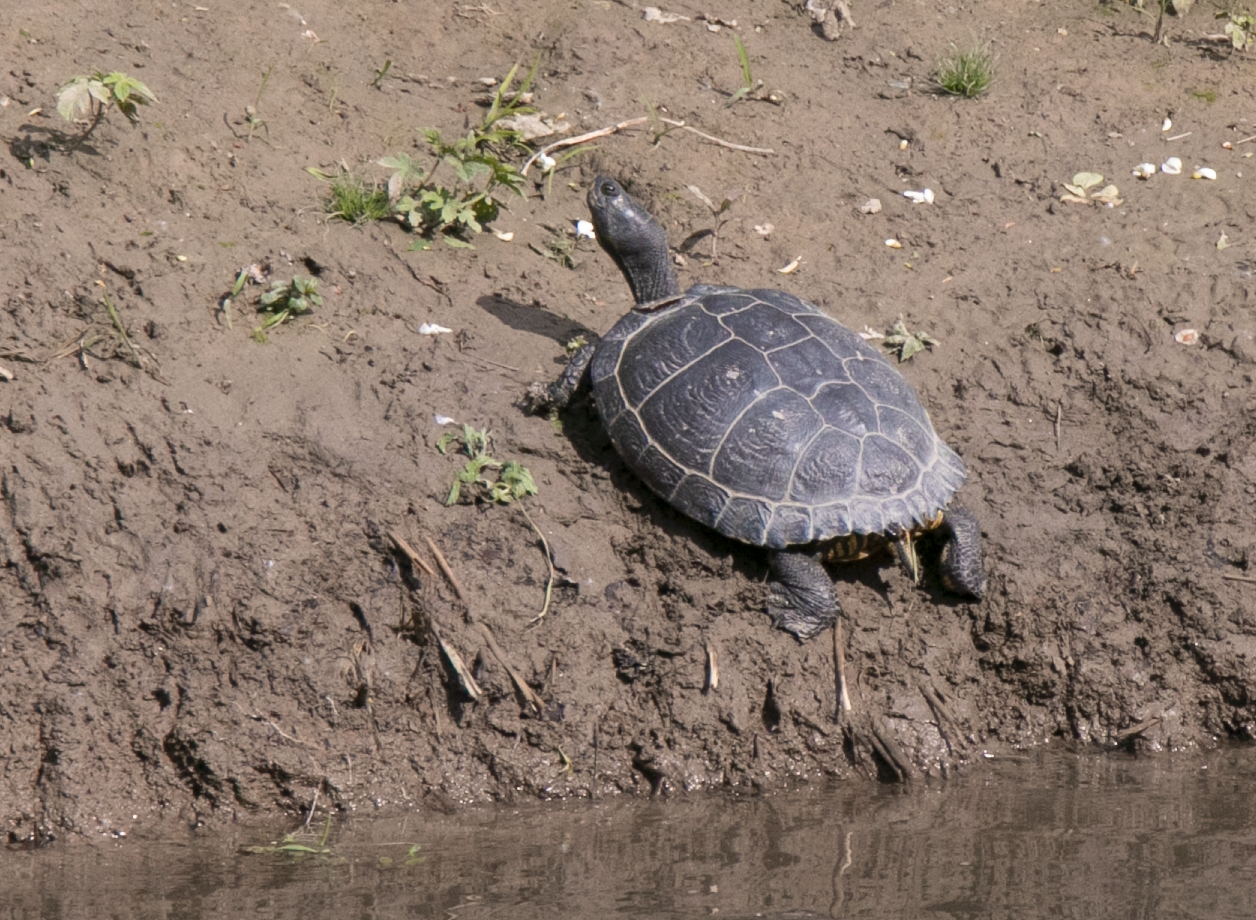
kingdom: Animalia
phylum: Chordata
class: Testudines
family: Emydidae
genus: Trachemys
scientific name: Trachemys scripta
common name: Slider
